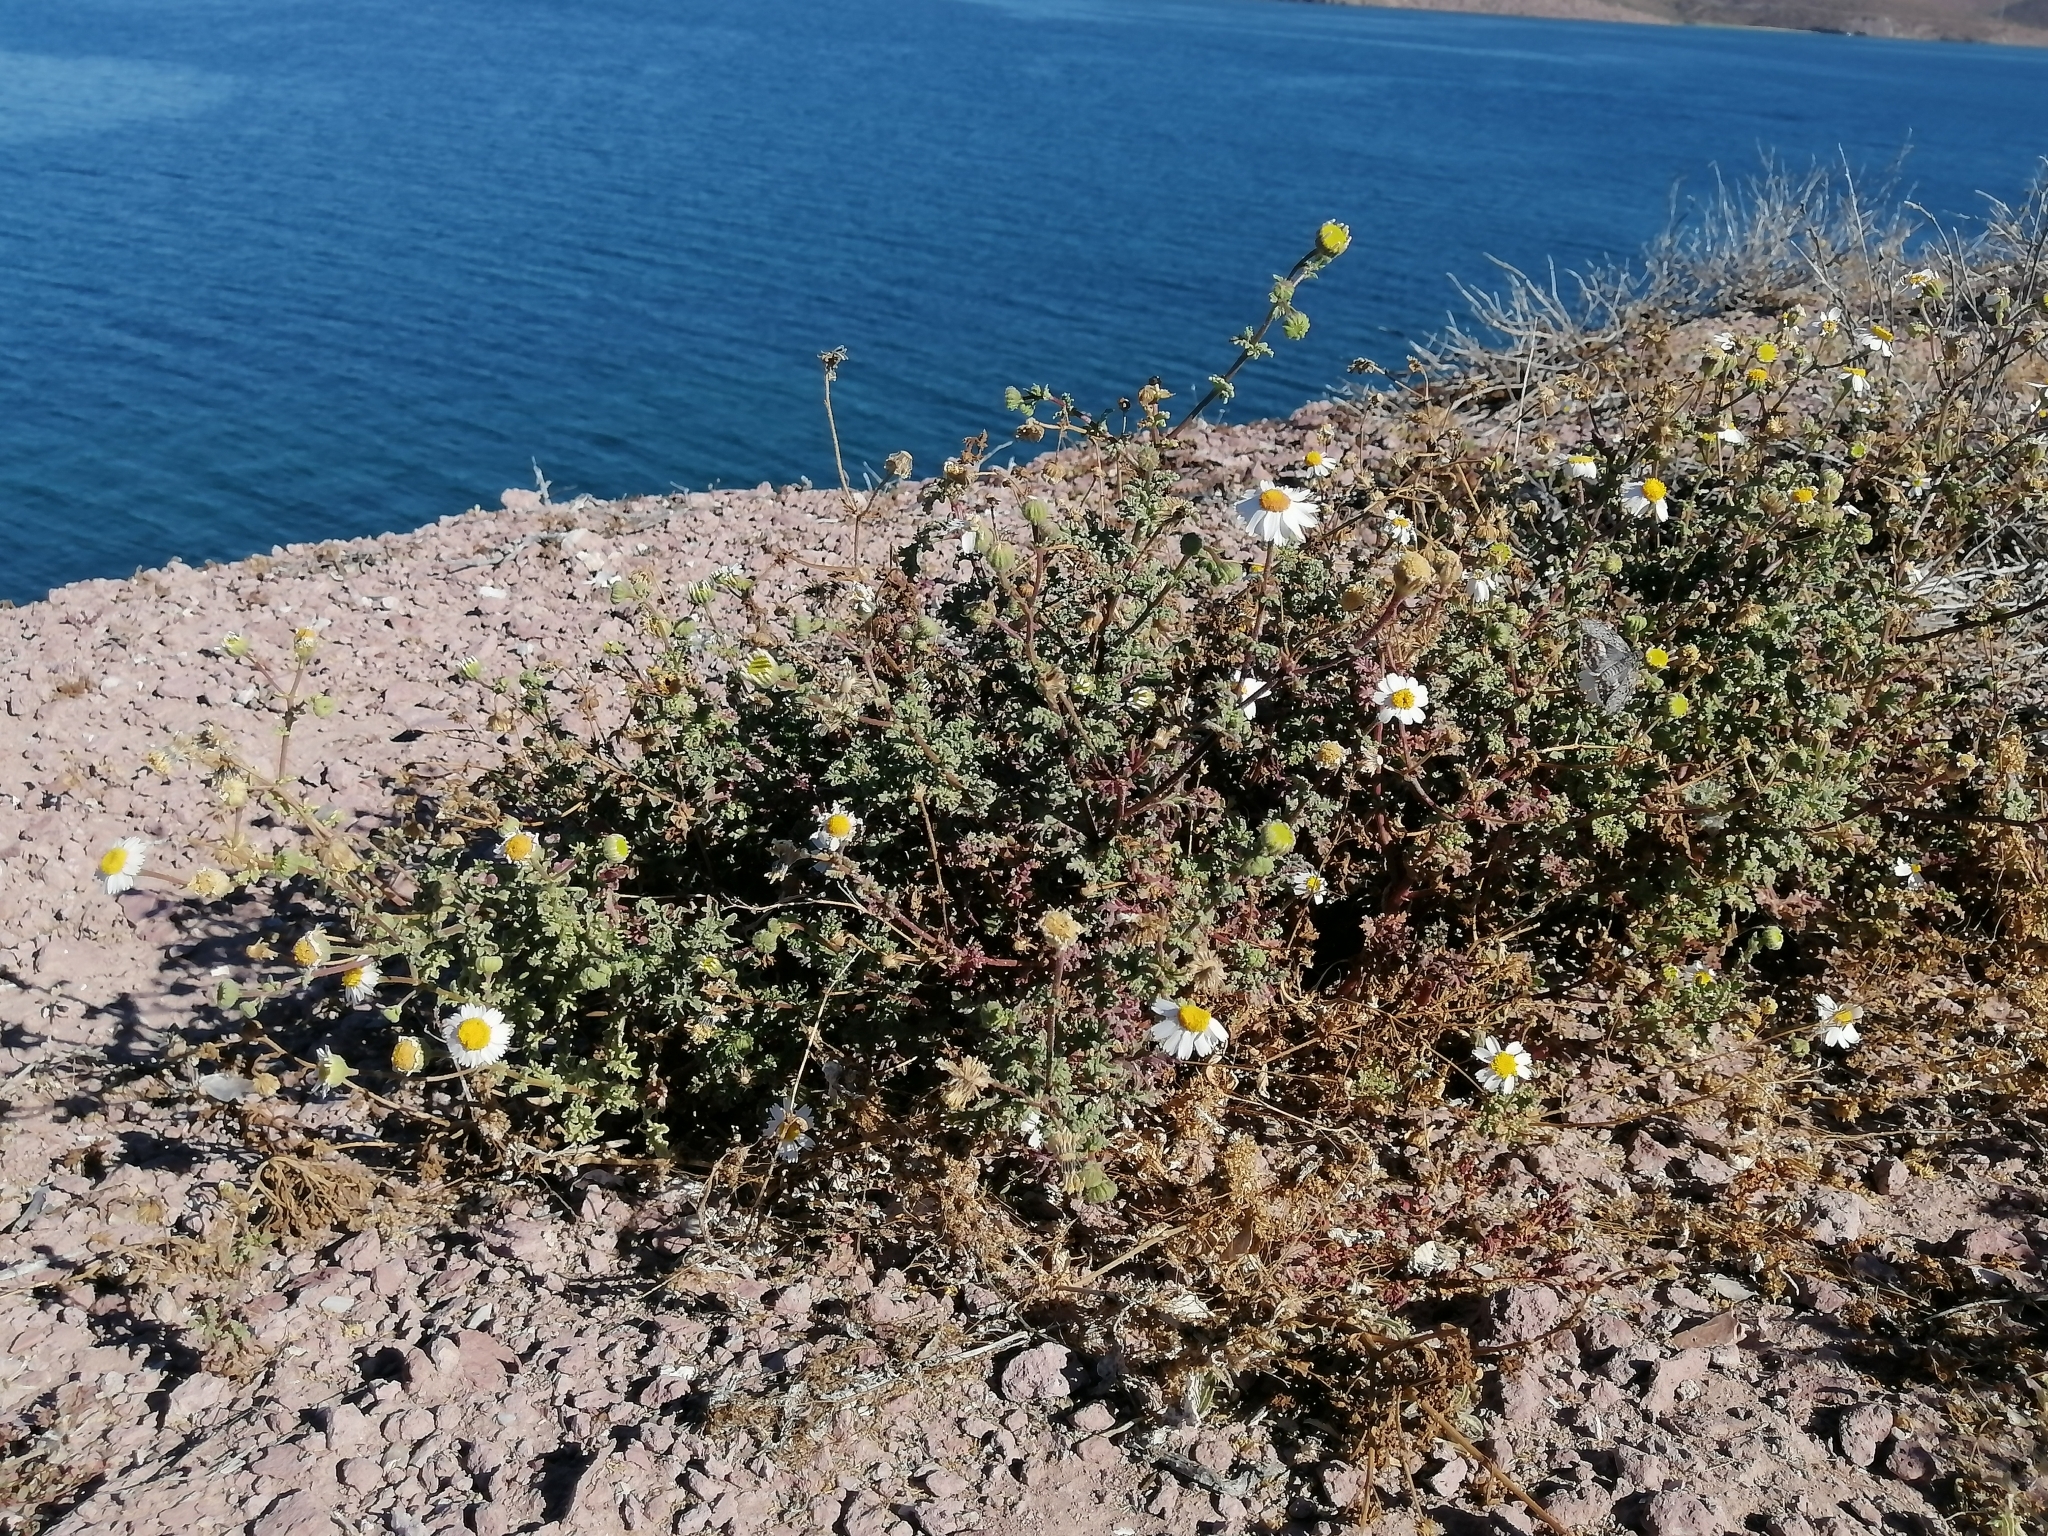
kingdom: Plantae
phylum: Tracheophyta
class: Magnoliopsida
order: Asterales
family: Asteraceae
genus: Perityle
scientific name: Perityle crassifolia
